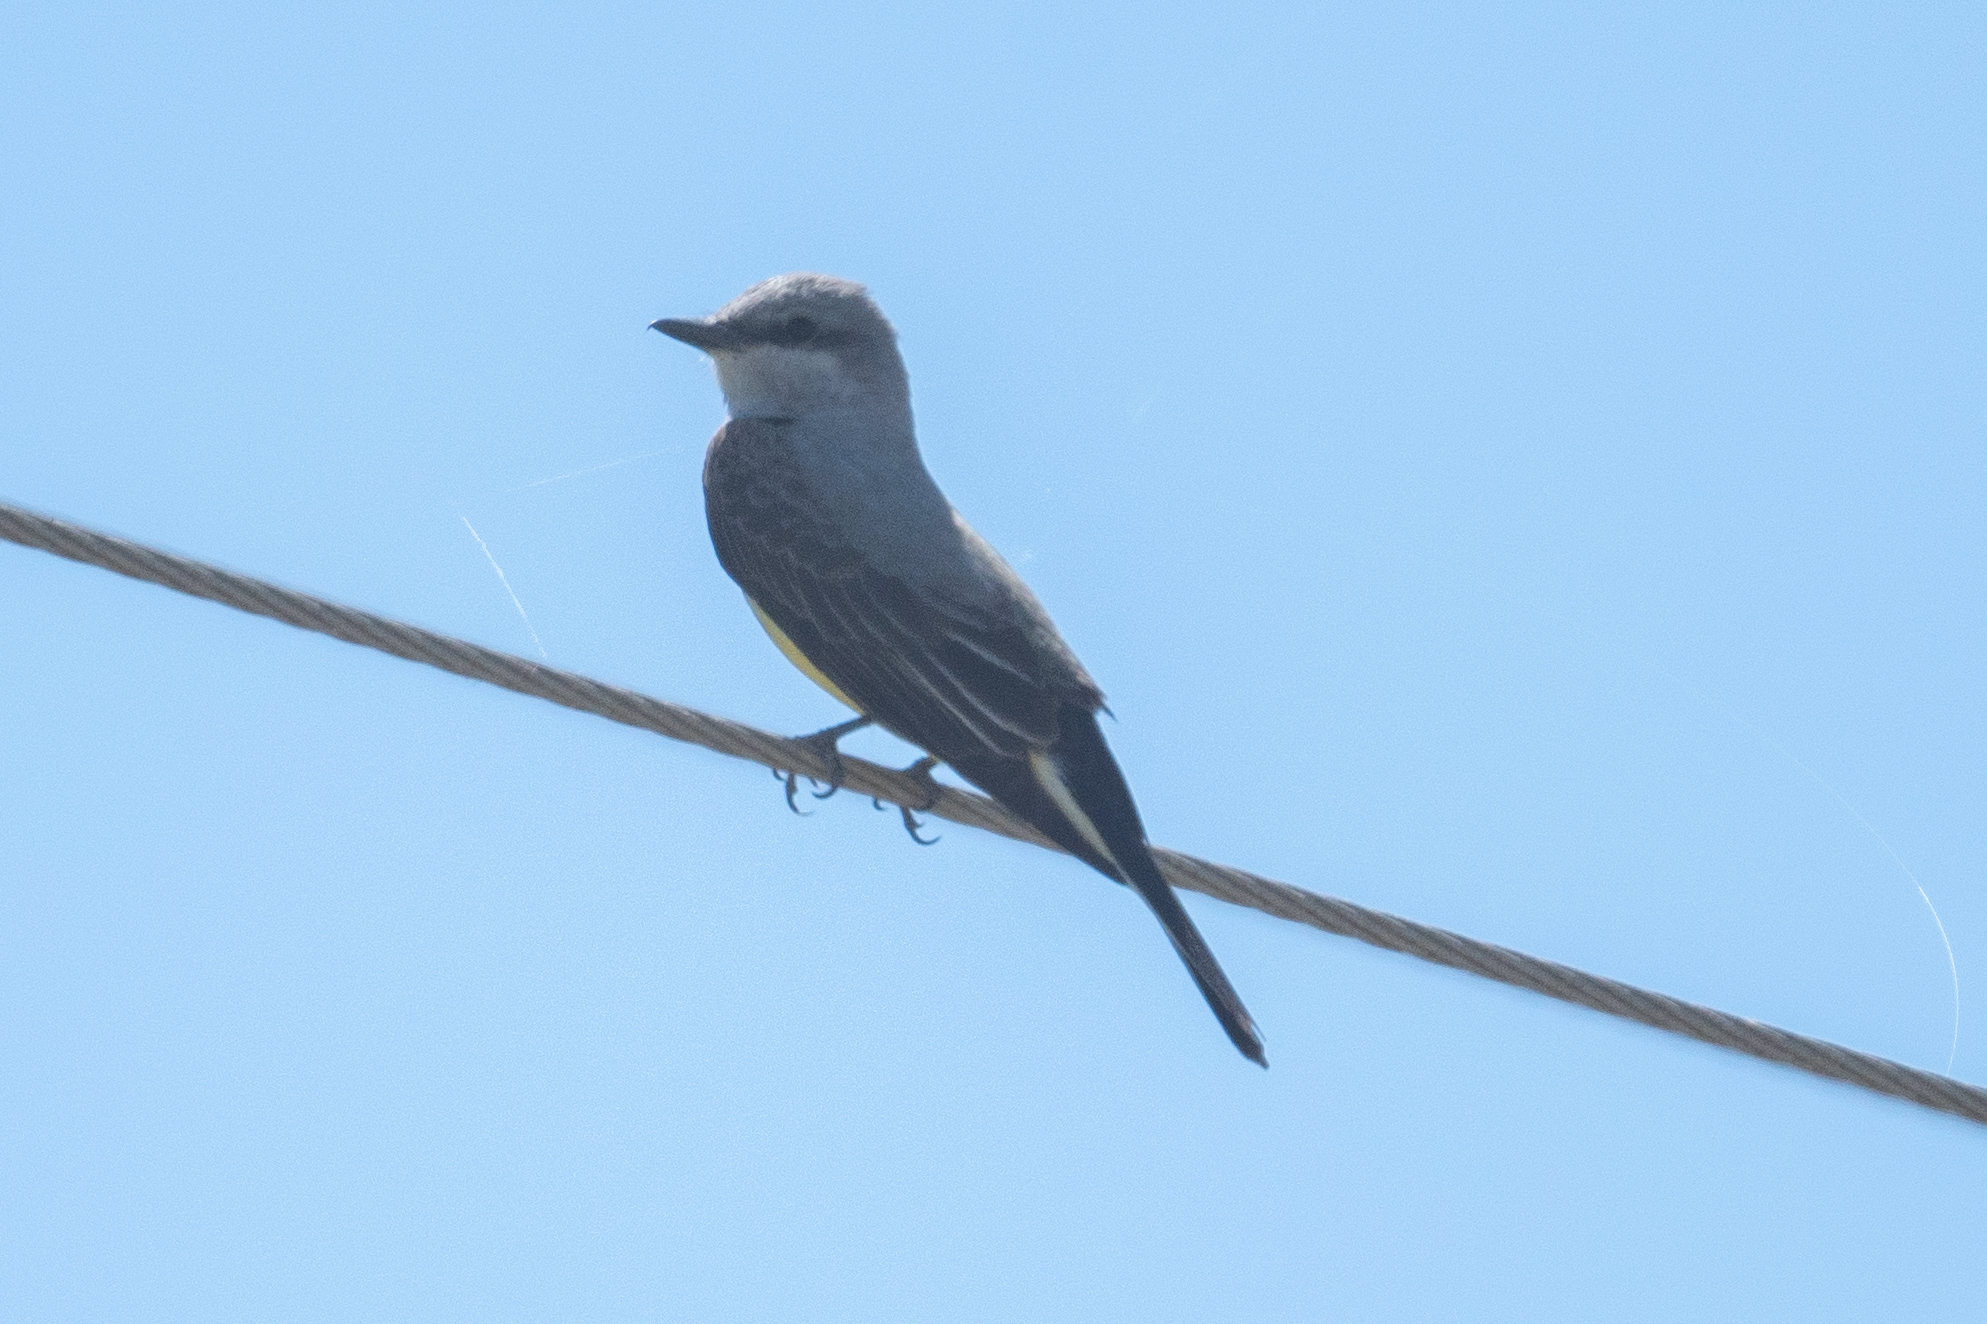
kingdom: Animalia
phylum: Chordata
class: Aves
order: Passeriformes
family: Tyrannidae
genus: Tyrannus
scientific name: Tyrannus verticalis
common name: Western kingbird
